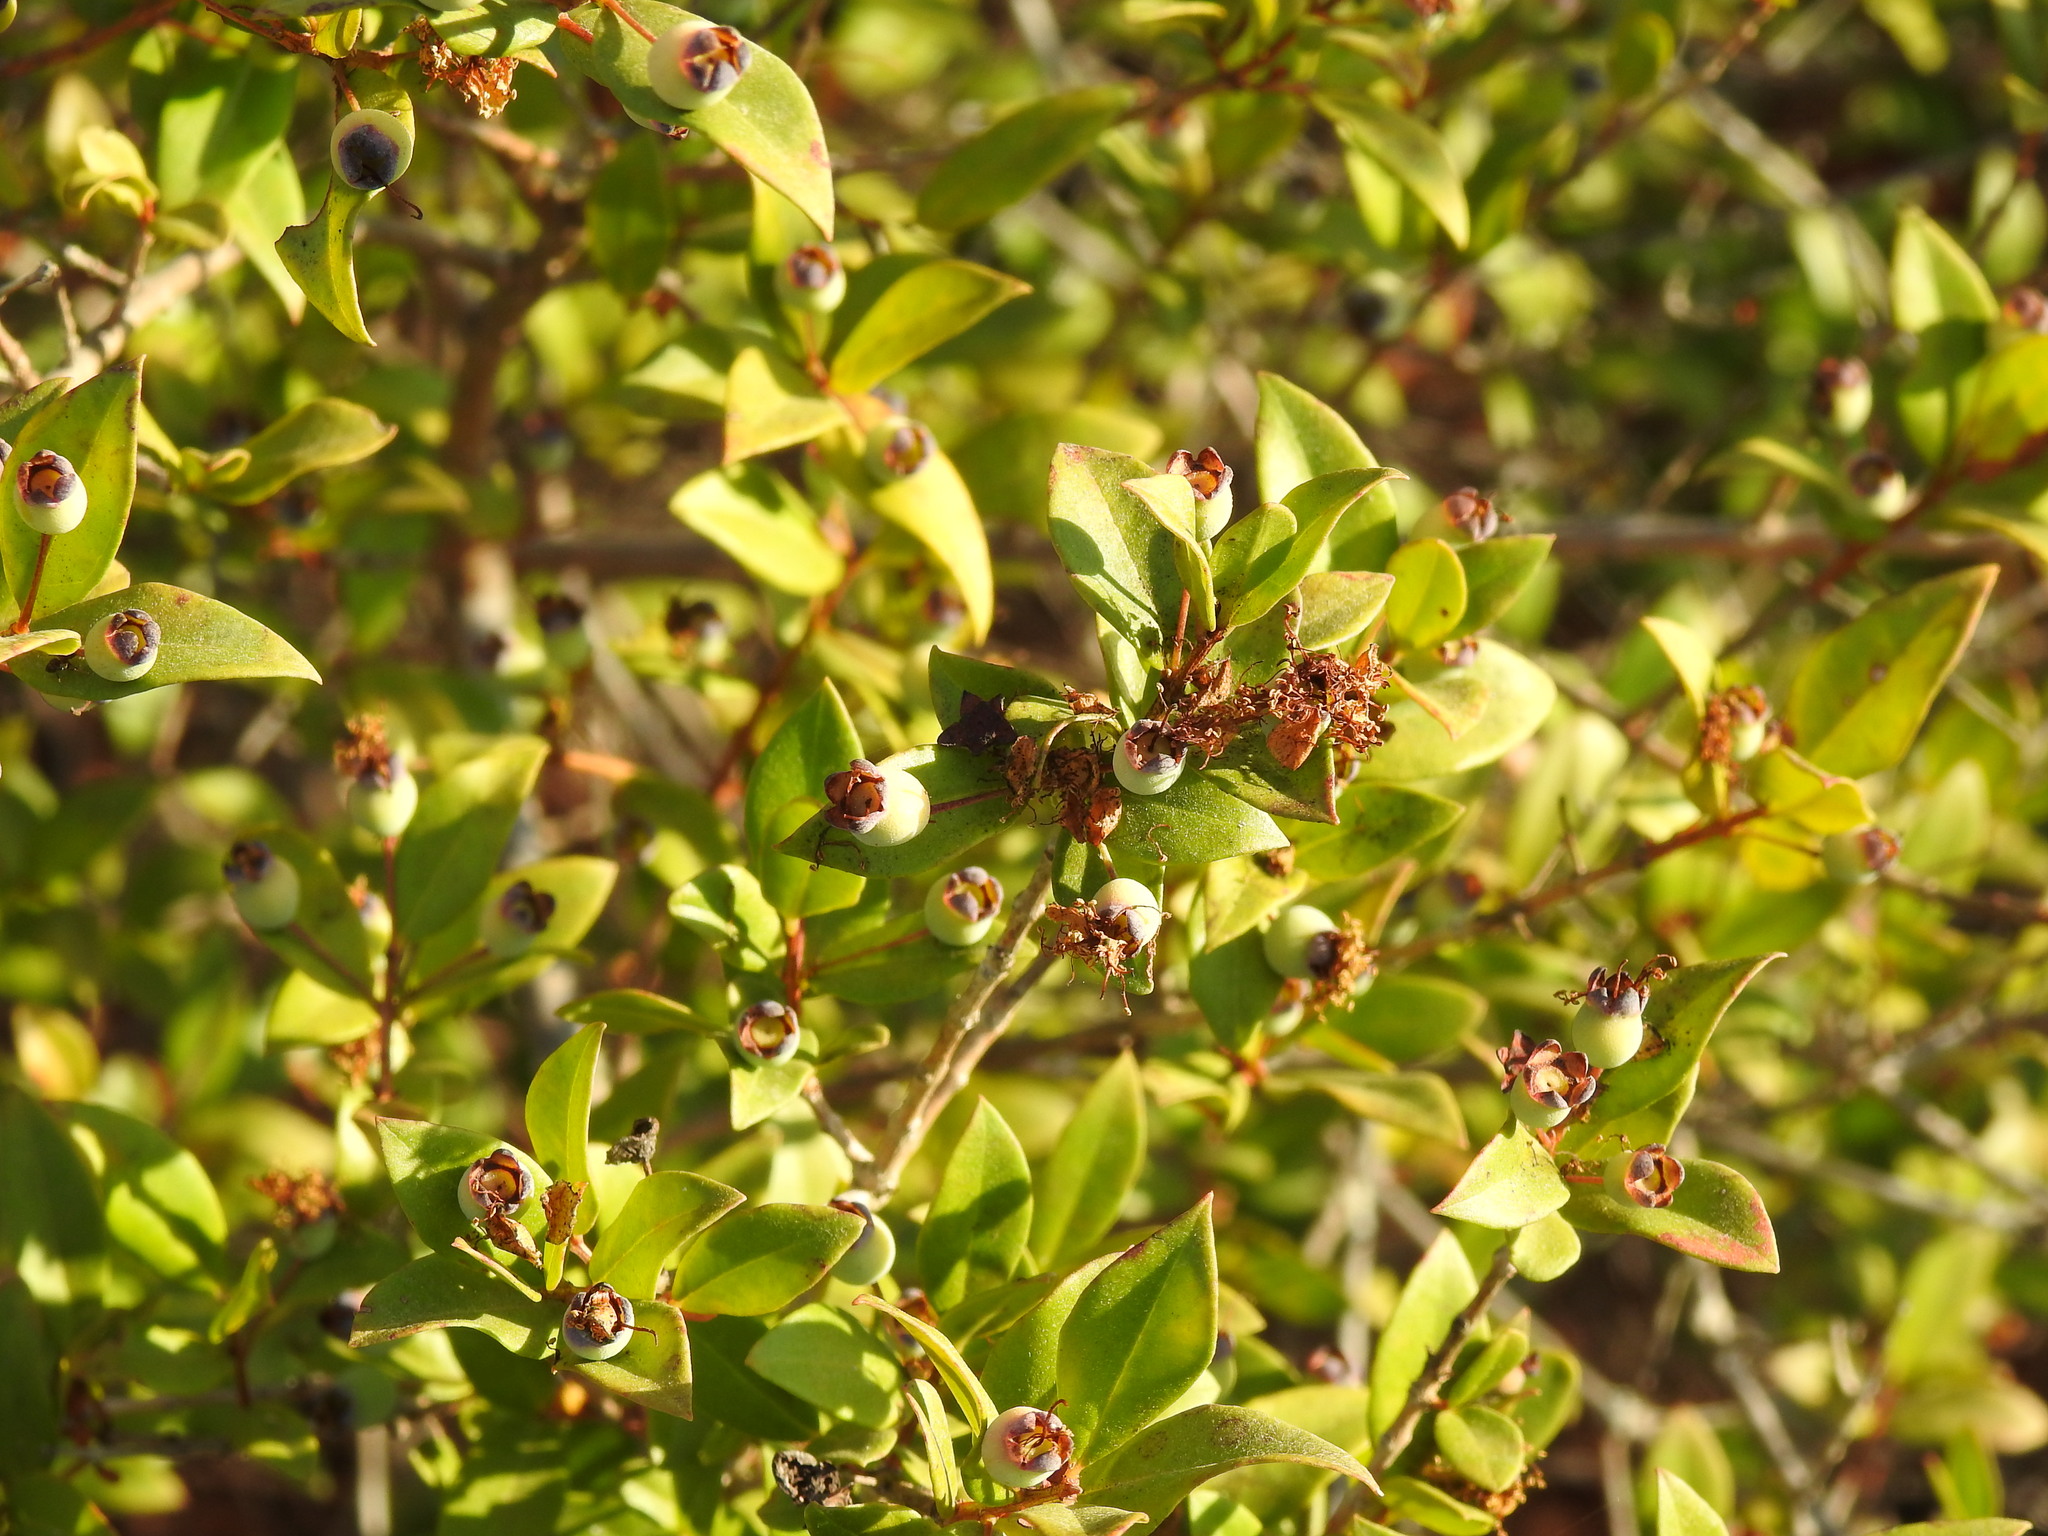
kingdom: Plantae
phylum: Tracheophyta
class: Magnoliopsida
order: Myrtales
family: Myrtaceae
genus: Myrtus
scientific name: Myrtus communis
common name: Myrtle
